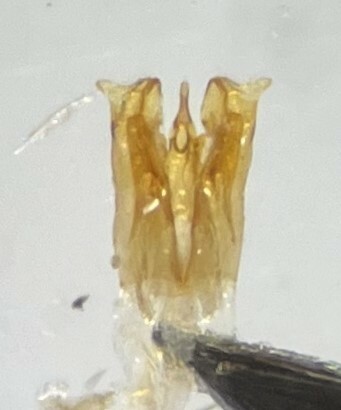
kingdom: Animalia
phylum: Arthropoda
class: Insecta
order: Coleoptera
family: Dytiscidae
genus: Desmopachria
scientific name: Desmopachria leechi
